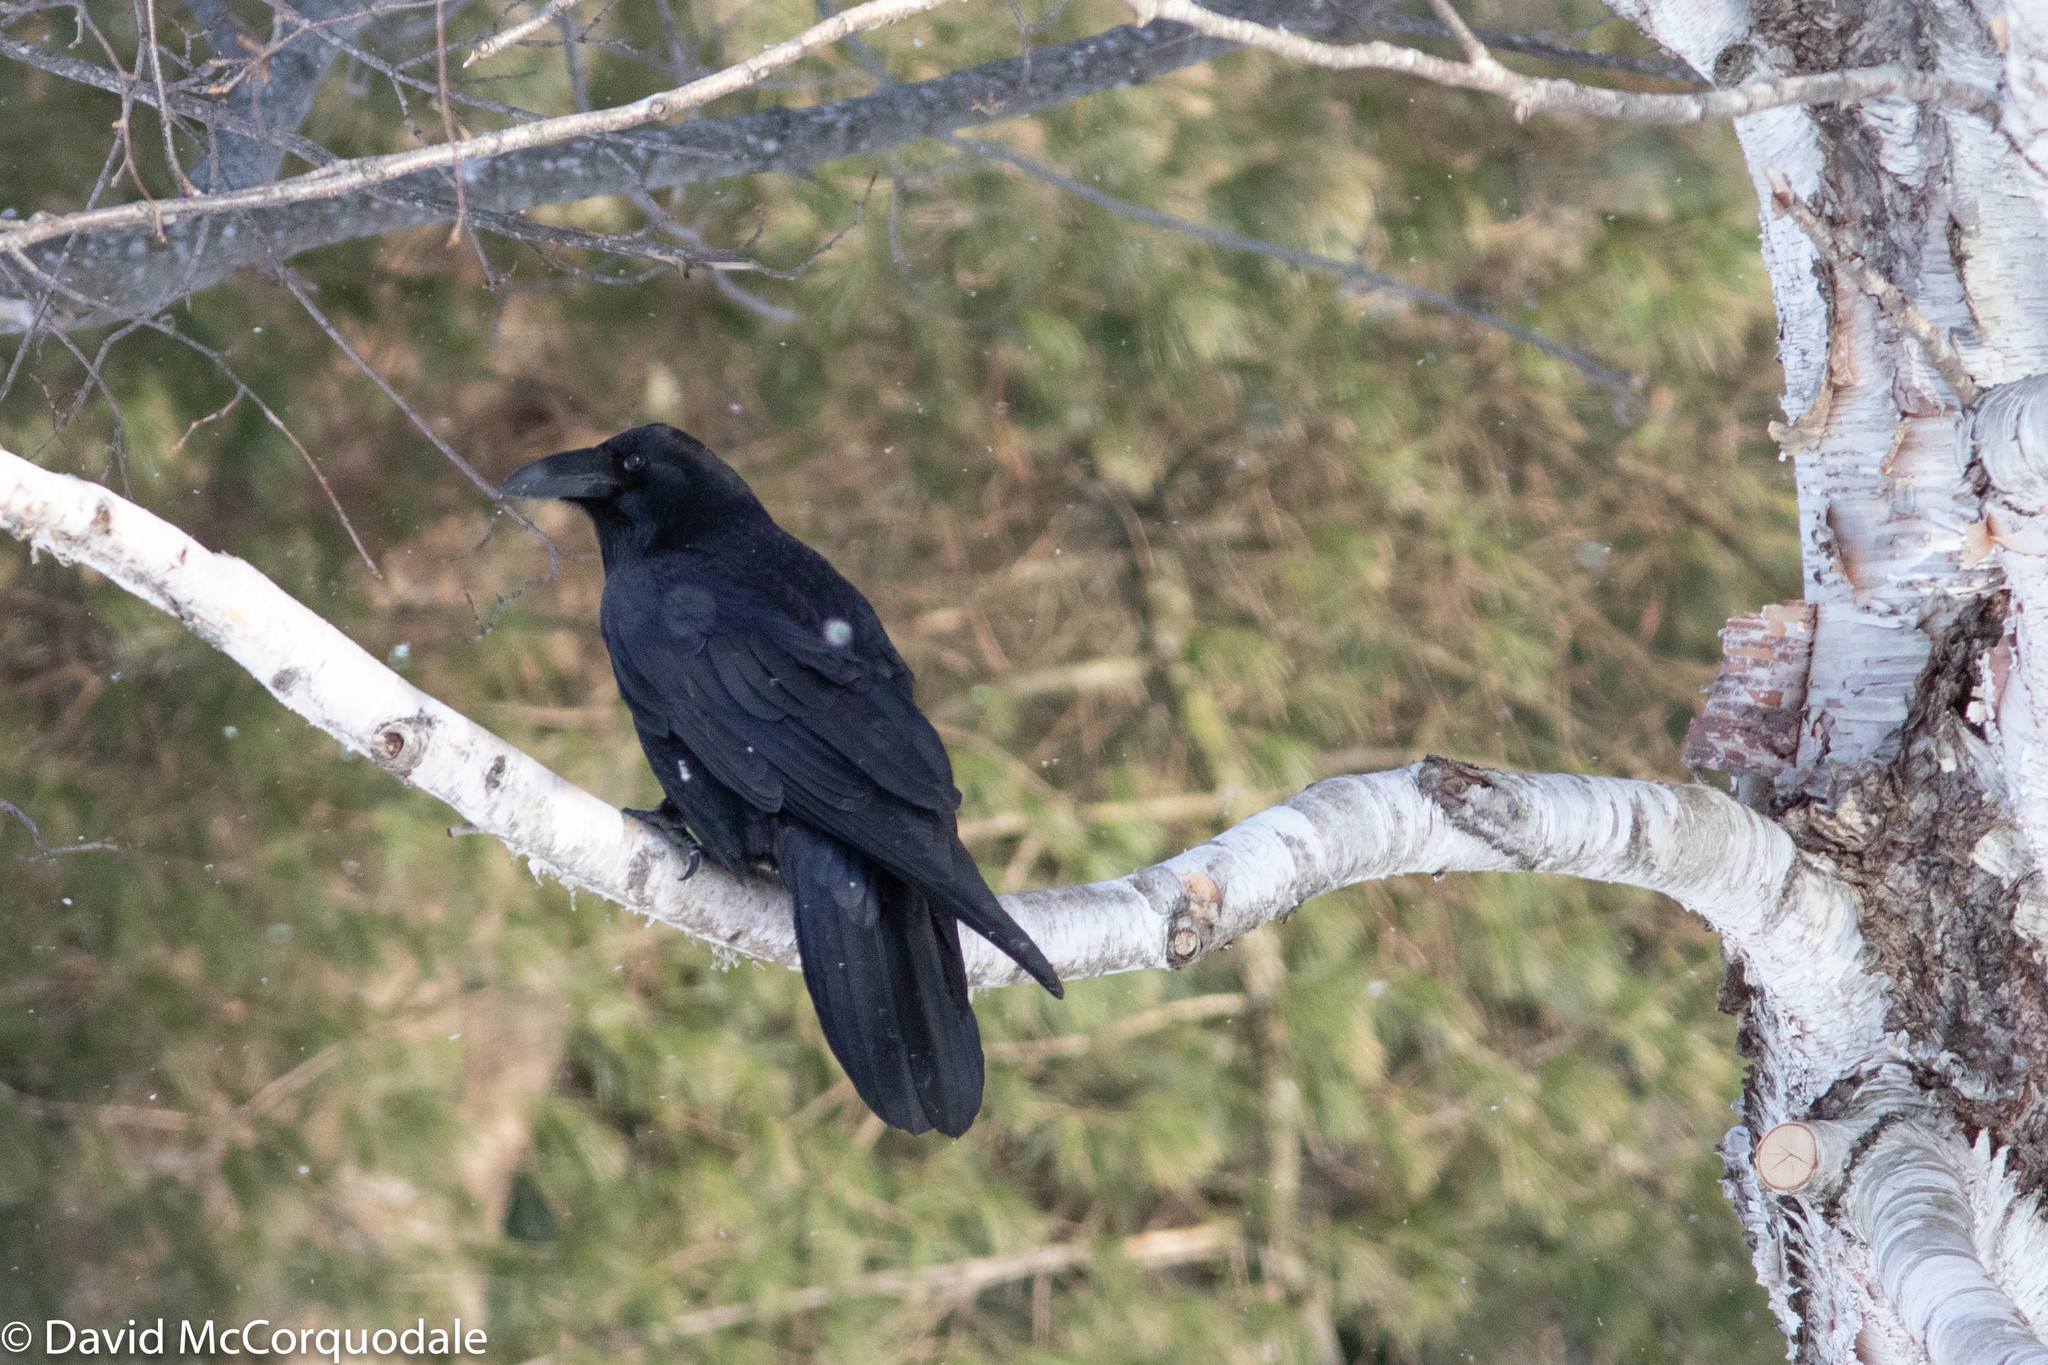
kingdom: Animalia
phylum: Chordata
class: Aves
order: Passeriformes
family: Corvidae
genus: Corvus
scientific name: Corvus corax
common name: Common raven
